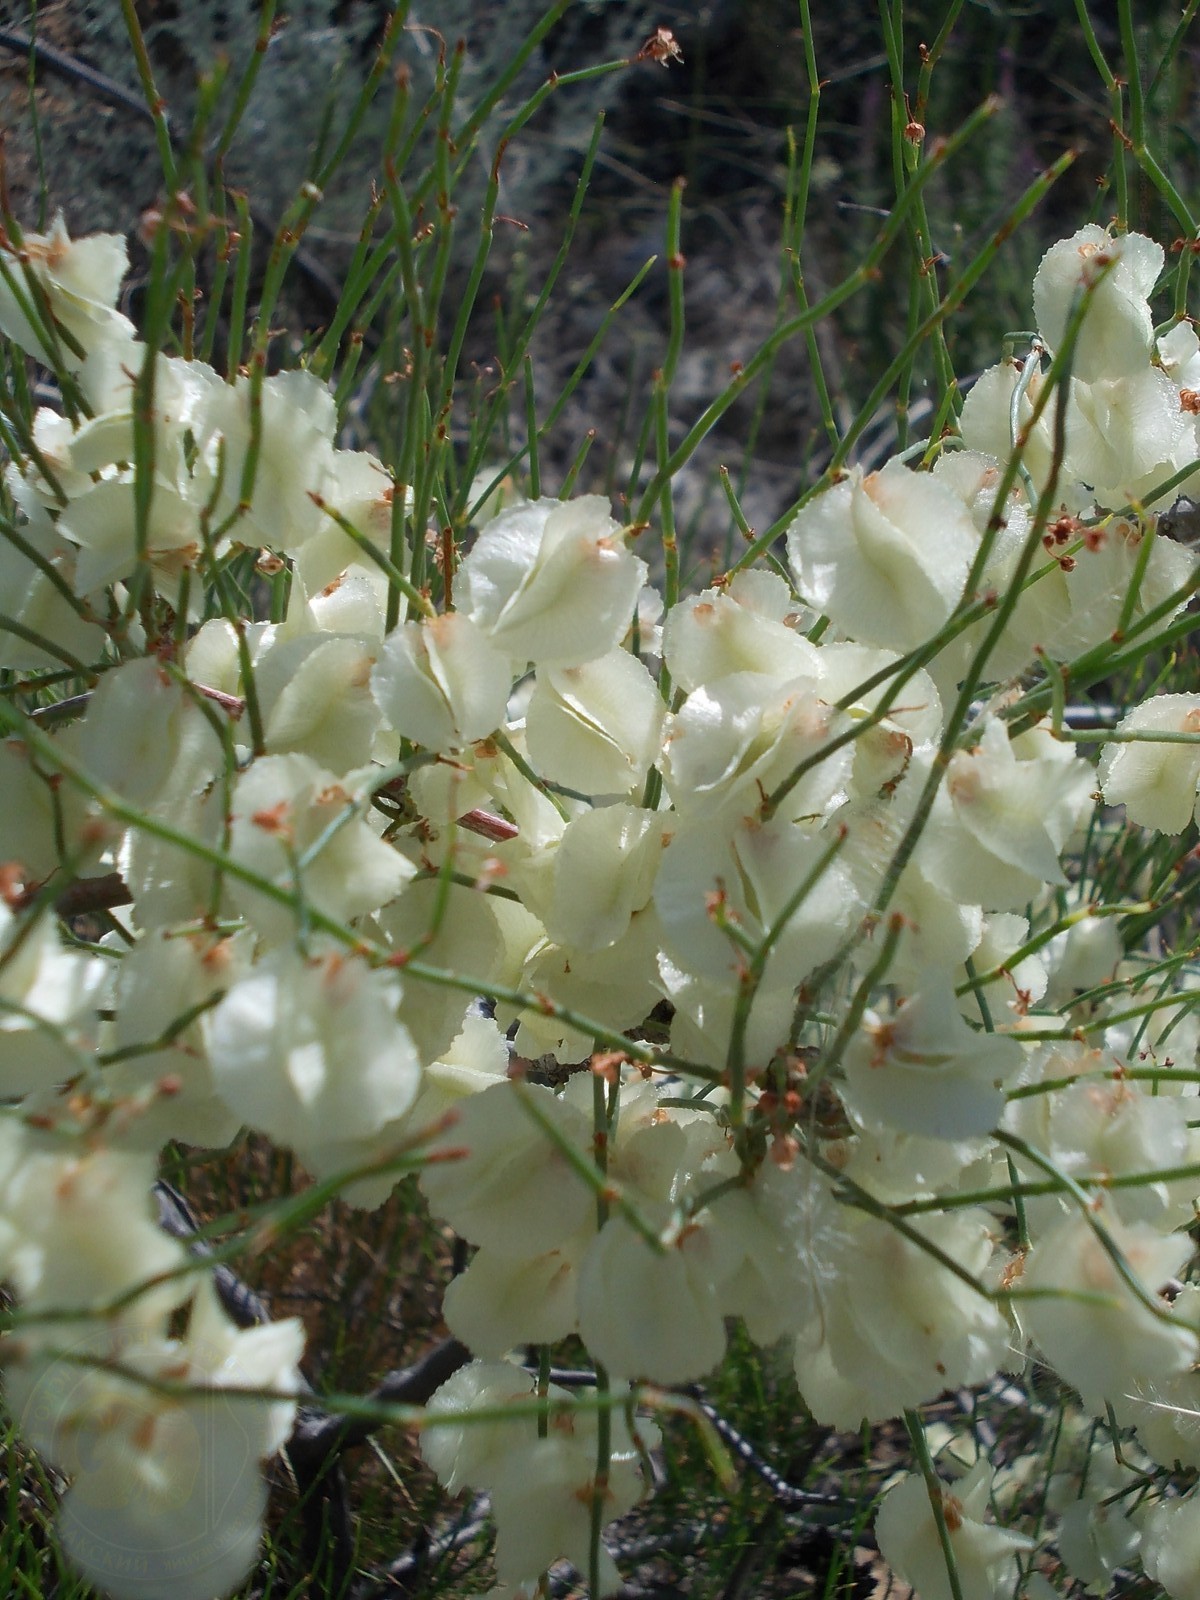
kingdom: Plantae
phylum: Tracheophyta
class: Magnoliopsida
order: Caryophyllales
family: Polygonaceae
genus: Calligonum
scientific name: Calligonum aphyllum
